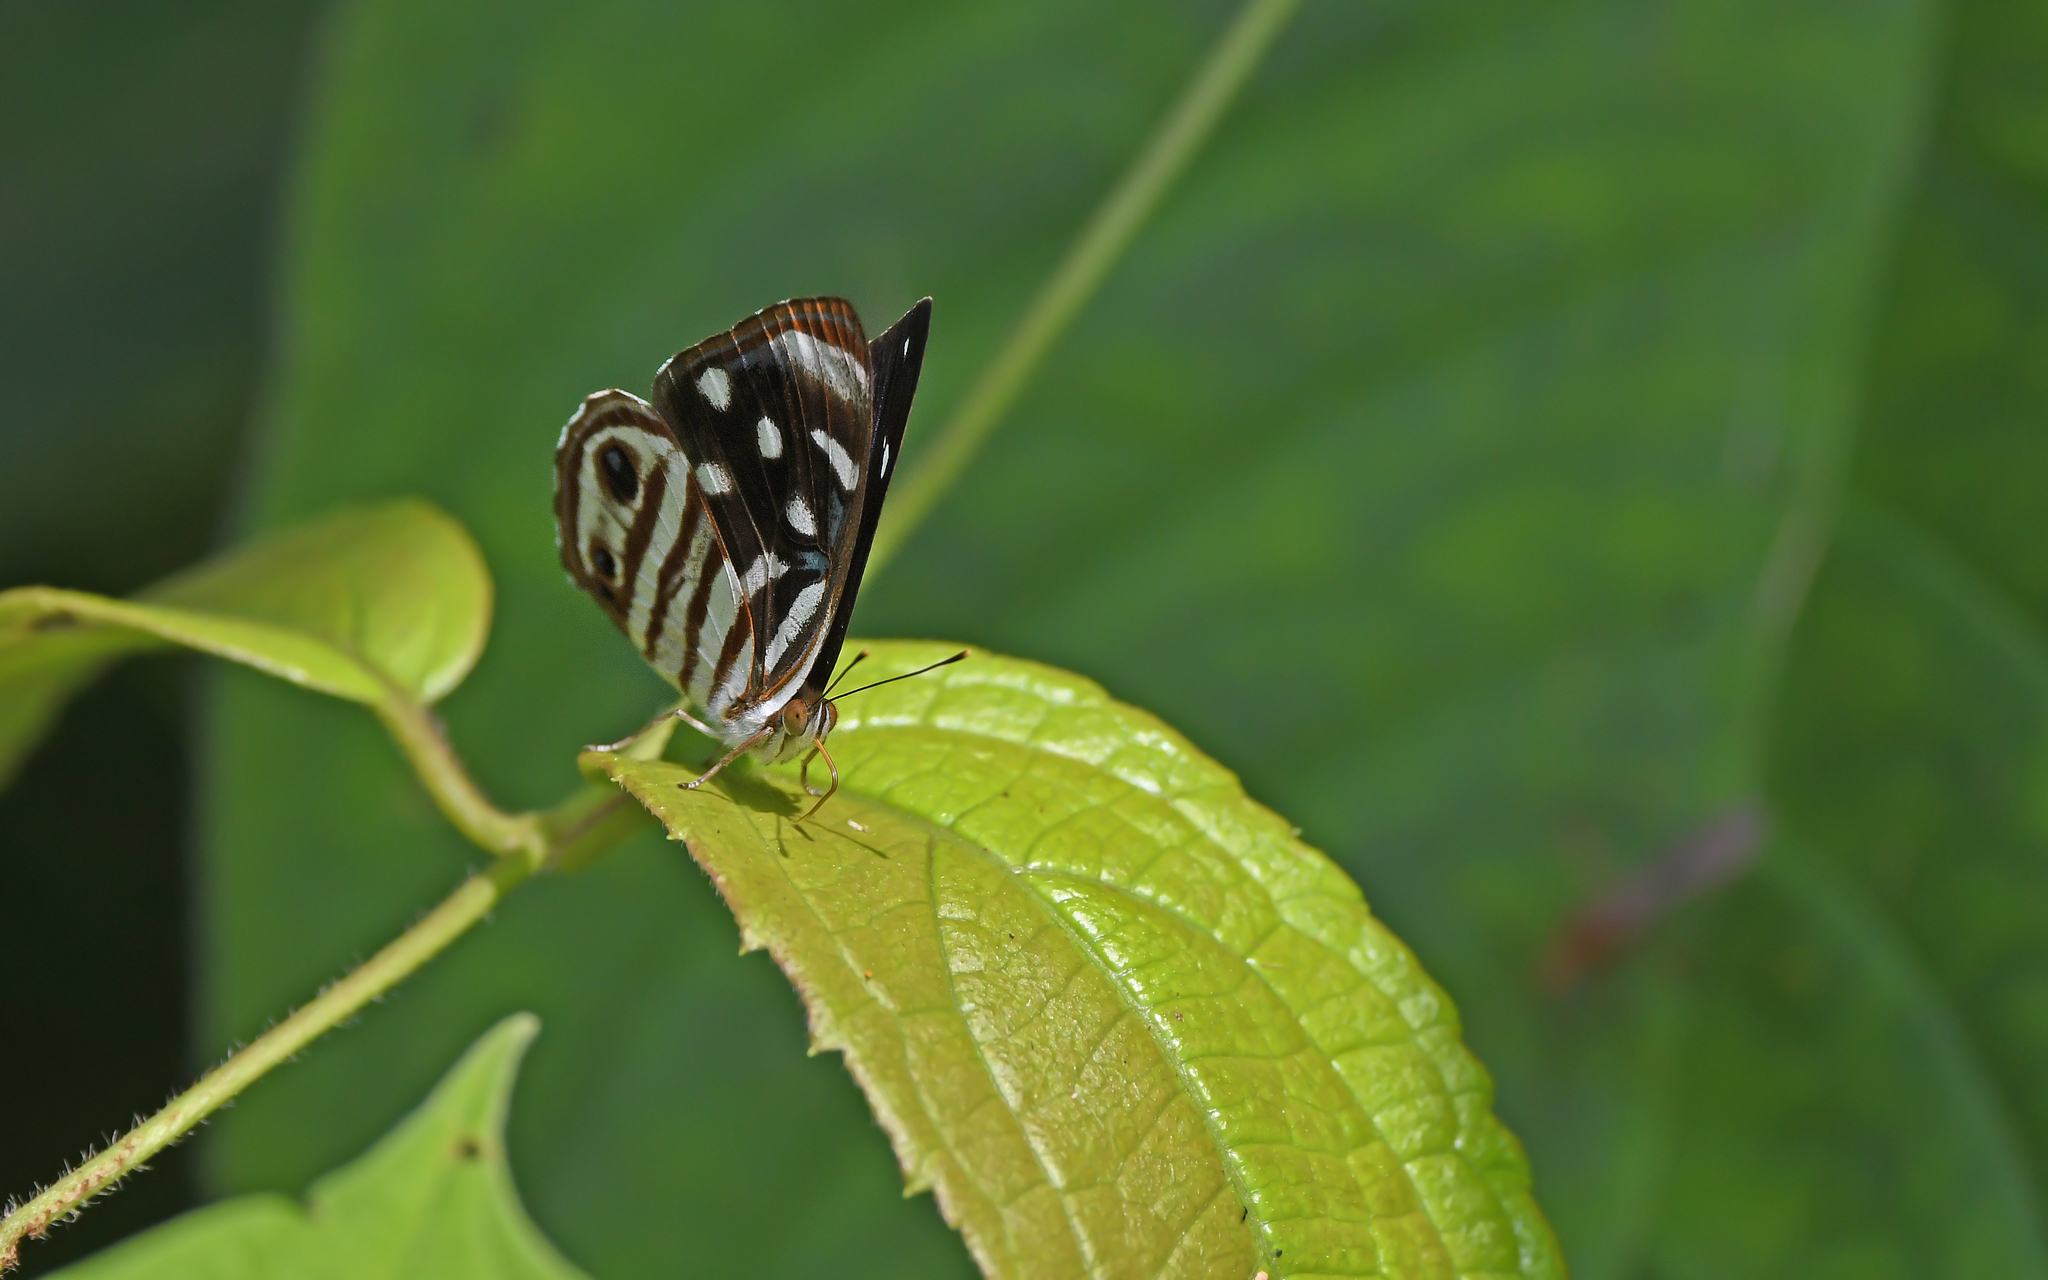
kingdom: Animalia
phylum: Arthropoda
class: Insecta
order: Lepidoptera
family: Nymphalidae
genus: Dynamine
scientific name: Dynamine gisella
